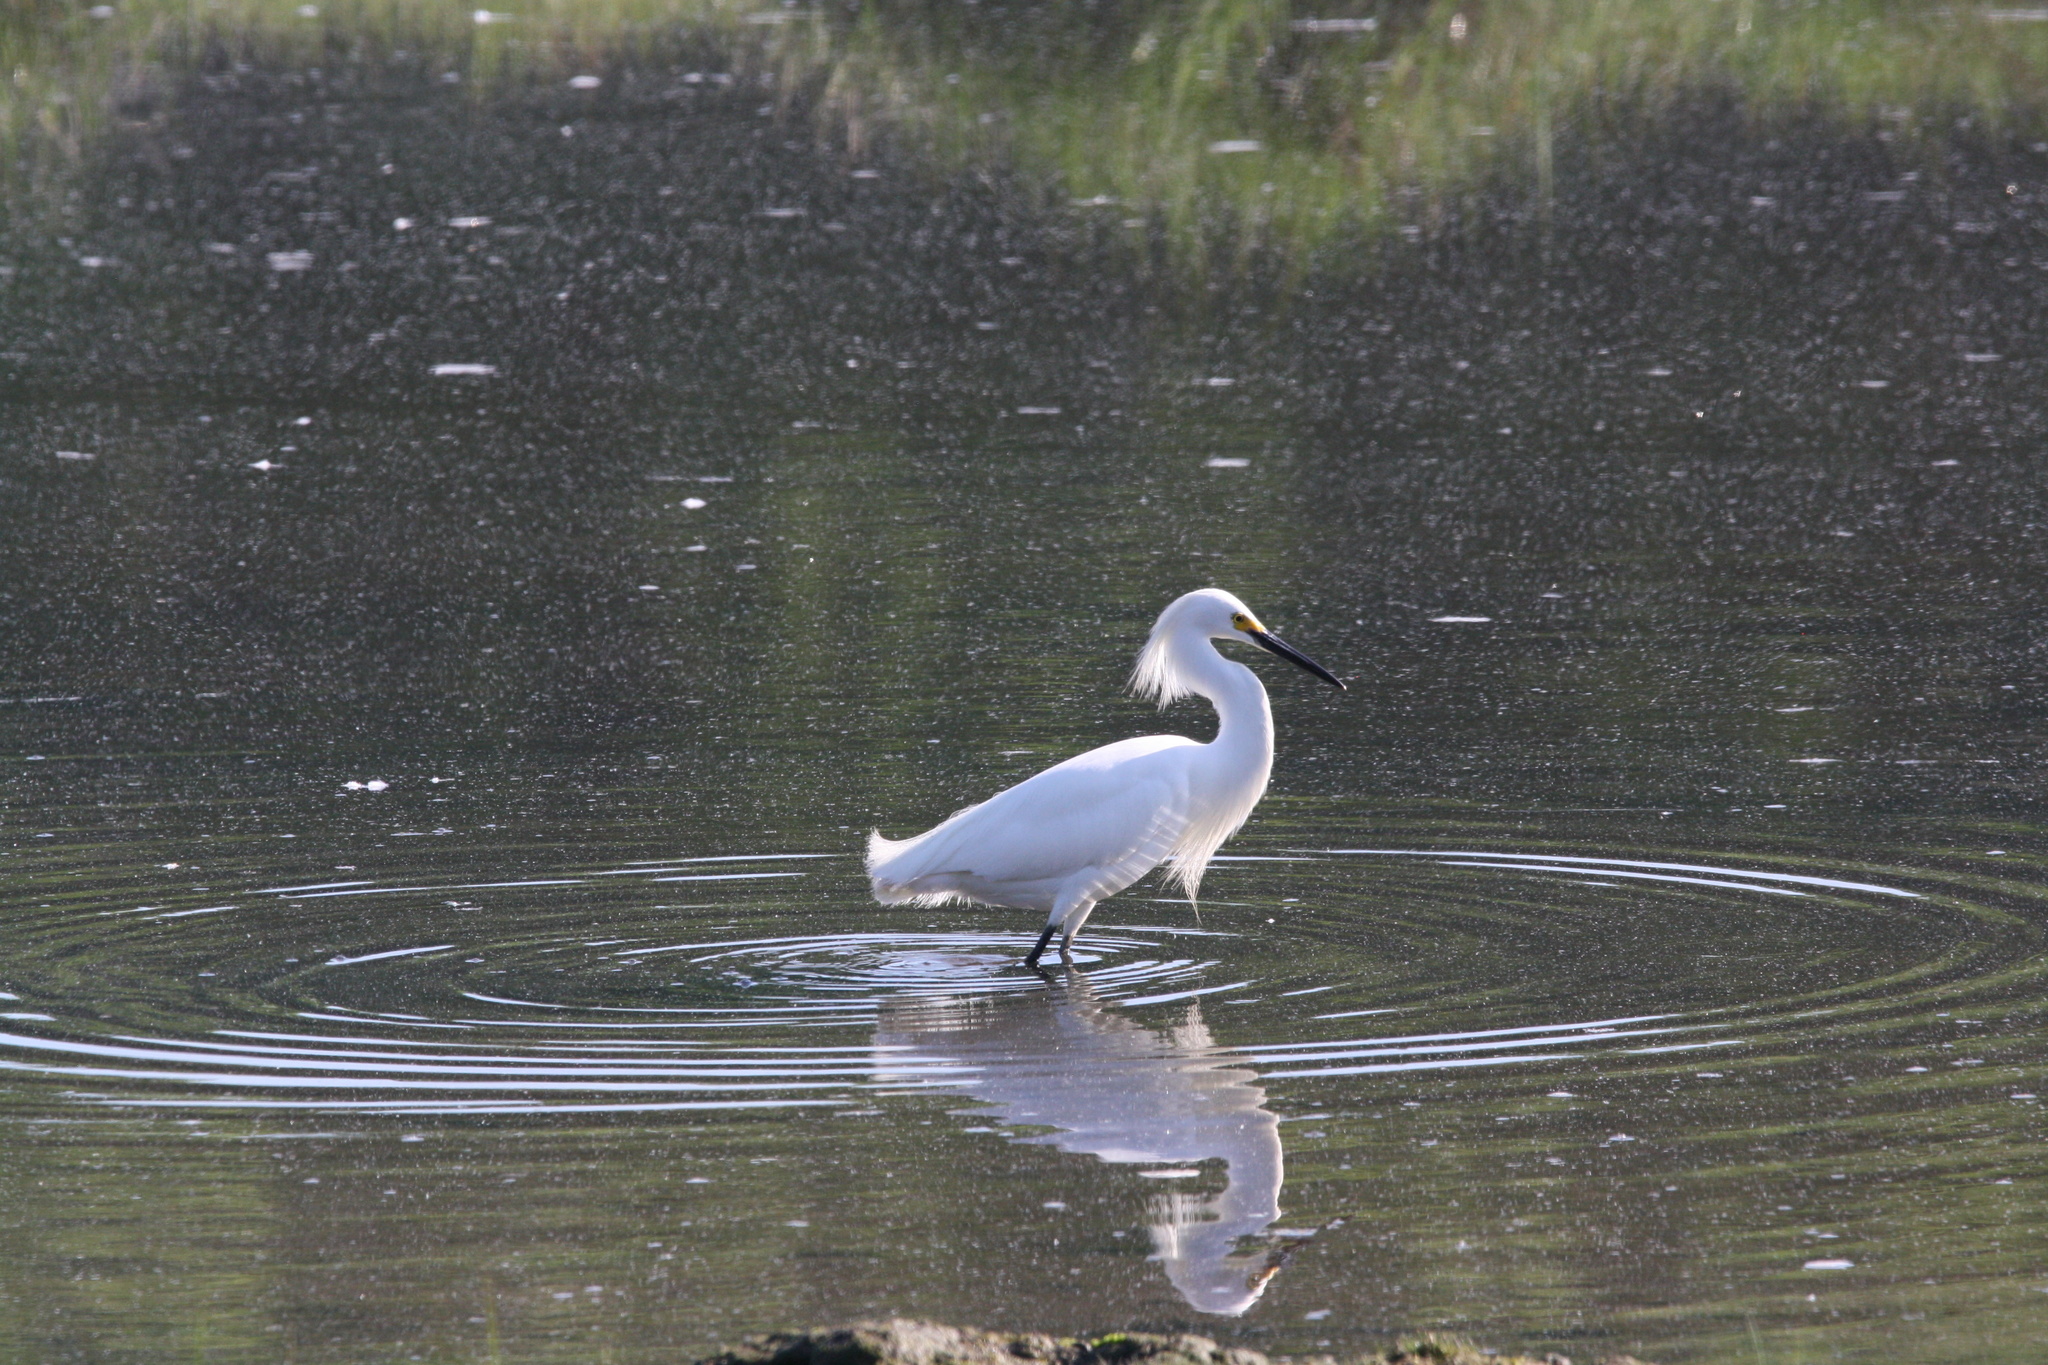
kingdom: Animalia
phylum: Chordata
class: Aves
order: Pelecaniformes
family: Ardeidae
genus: Egretta
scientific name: Egretta thula
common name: Snowy egret
